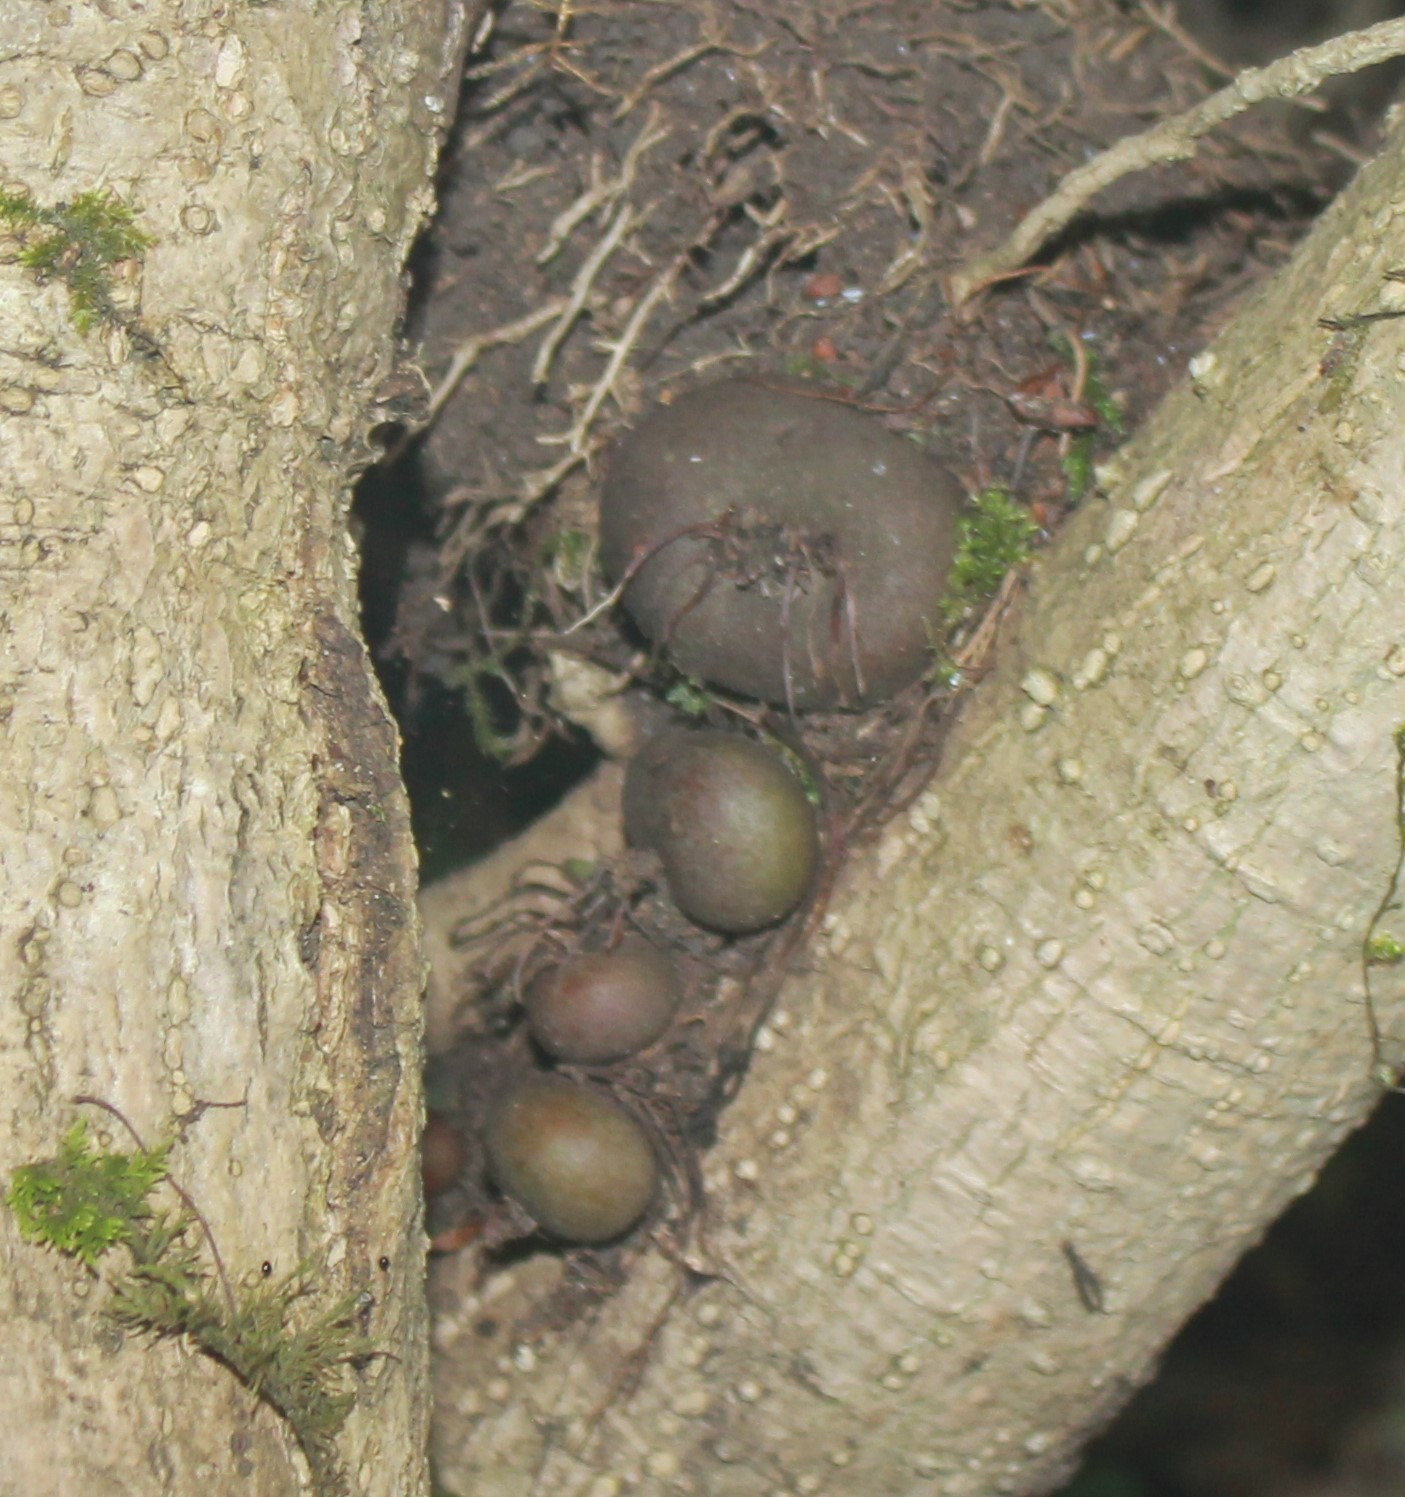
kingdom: Plantae
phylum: Tracheophyta
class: Magnoliopsida
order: Ericales
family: Primulaceae
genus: Cyclamen
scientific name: Cyclamen coum
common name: Eastern sowbread
